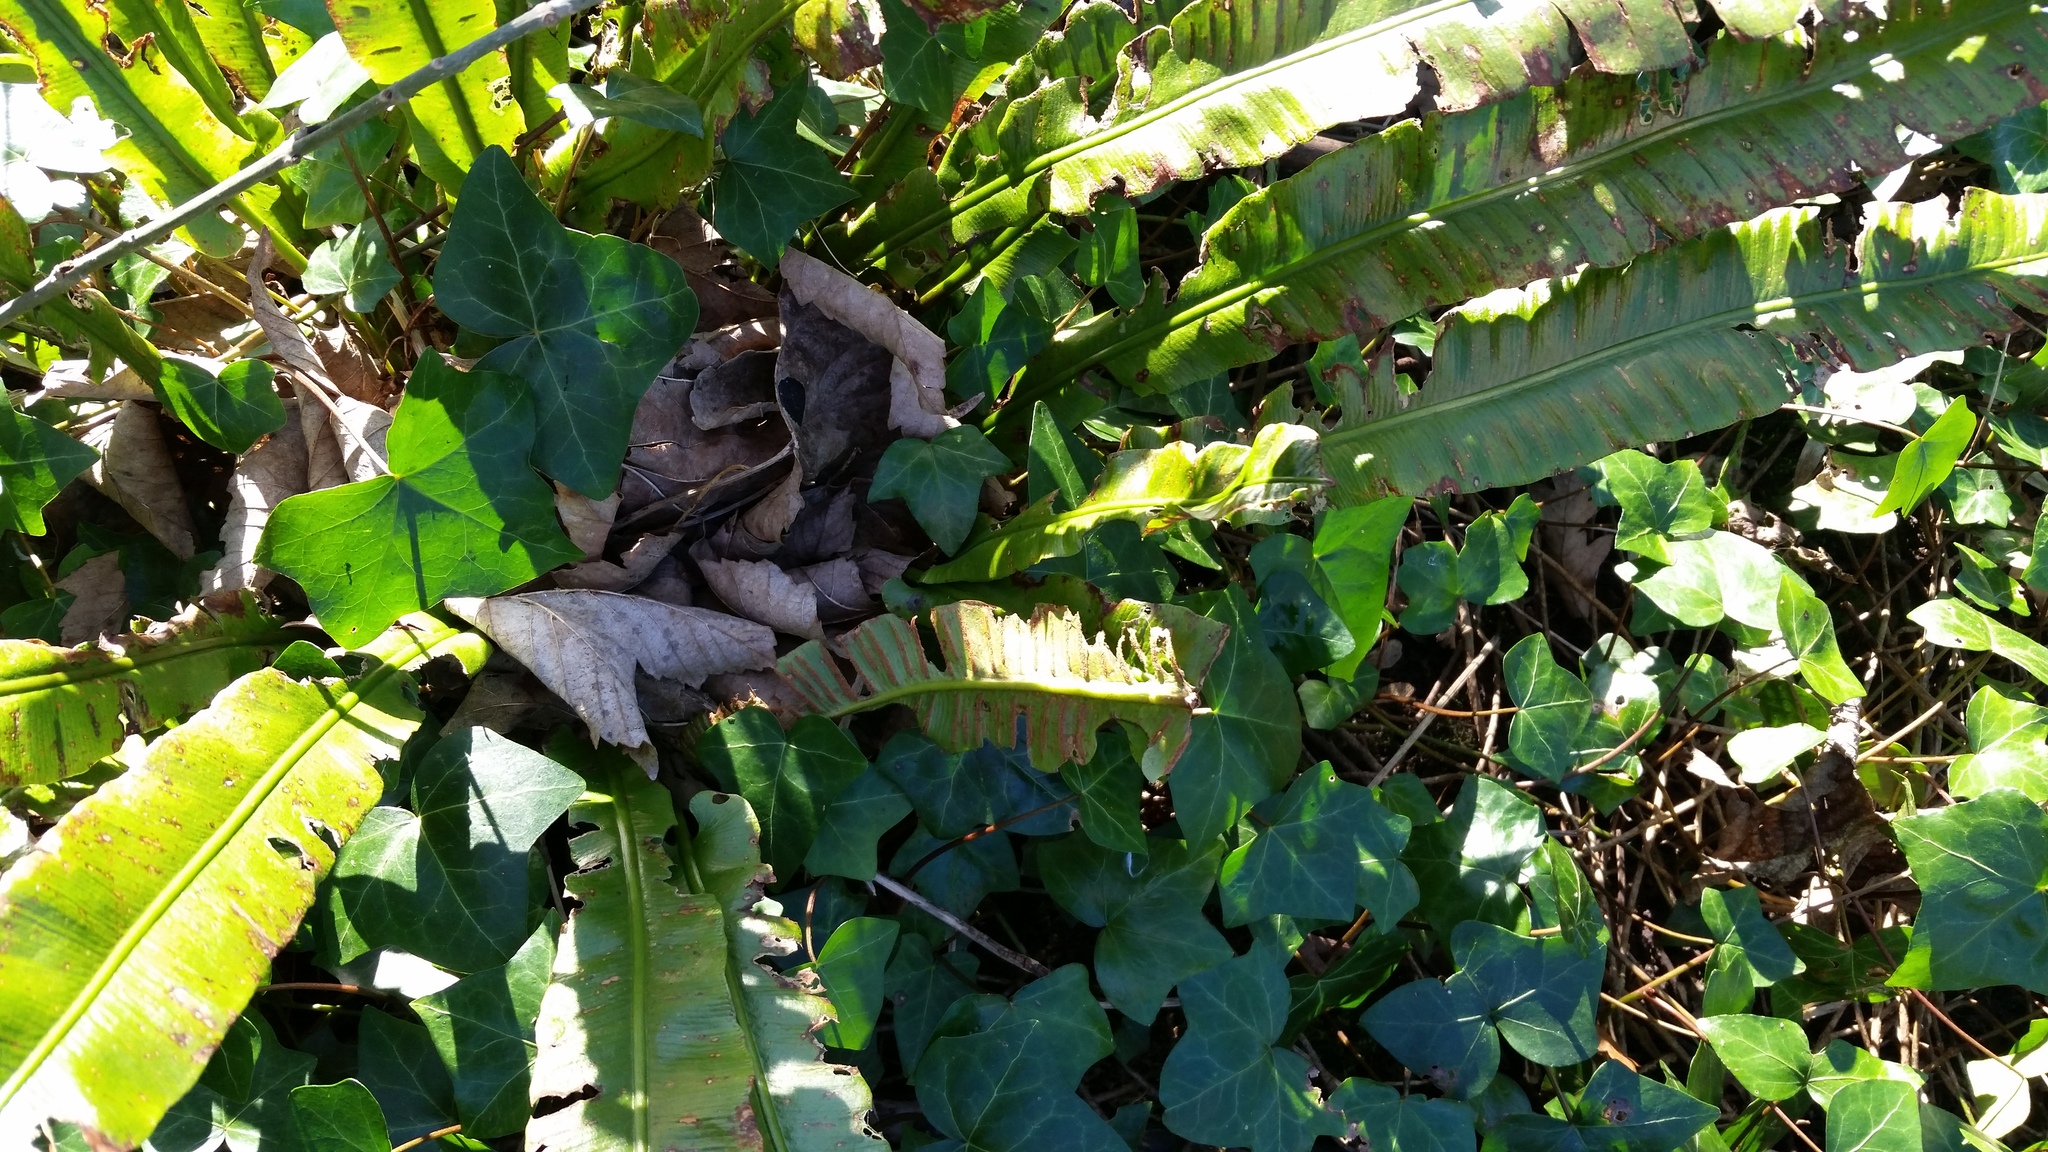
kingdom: Plantae
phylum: Tracheophyta
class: Polypodiopsida
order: Polypodiales
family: Aspleniaceae
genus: Asplenium
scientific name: Asplenium scolopendrium
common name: Hart's-tongue fern
